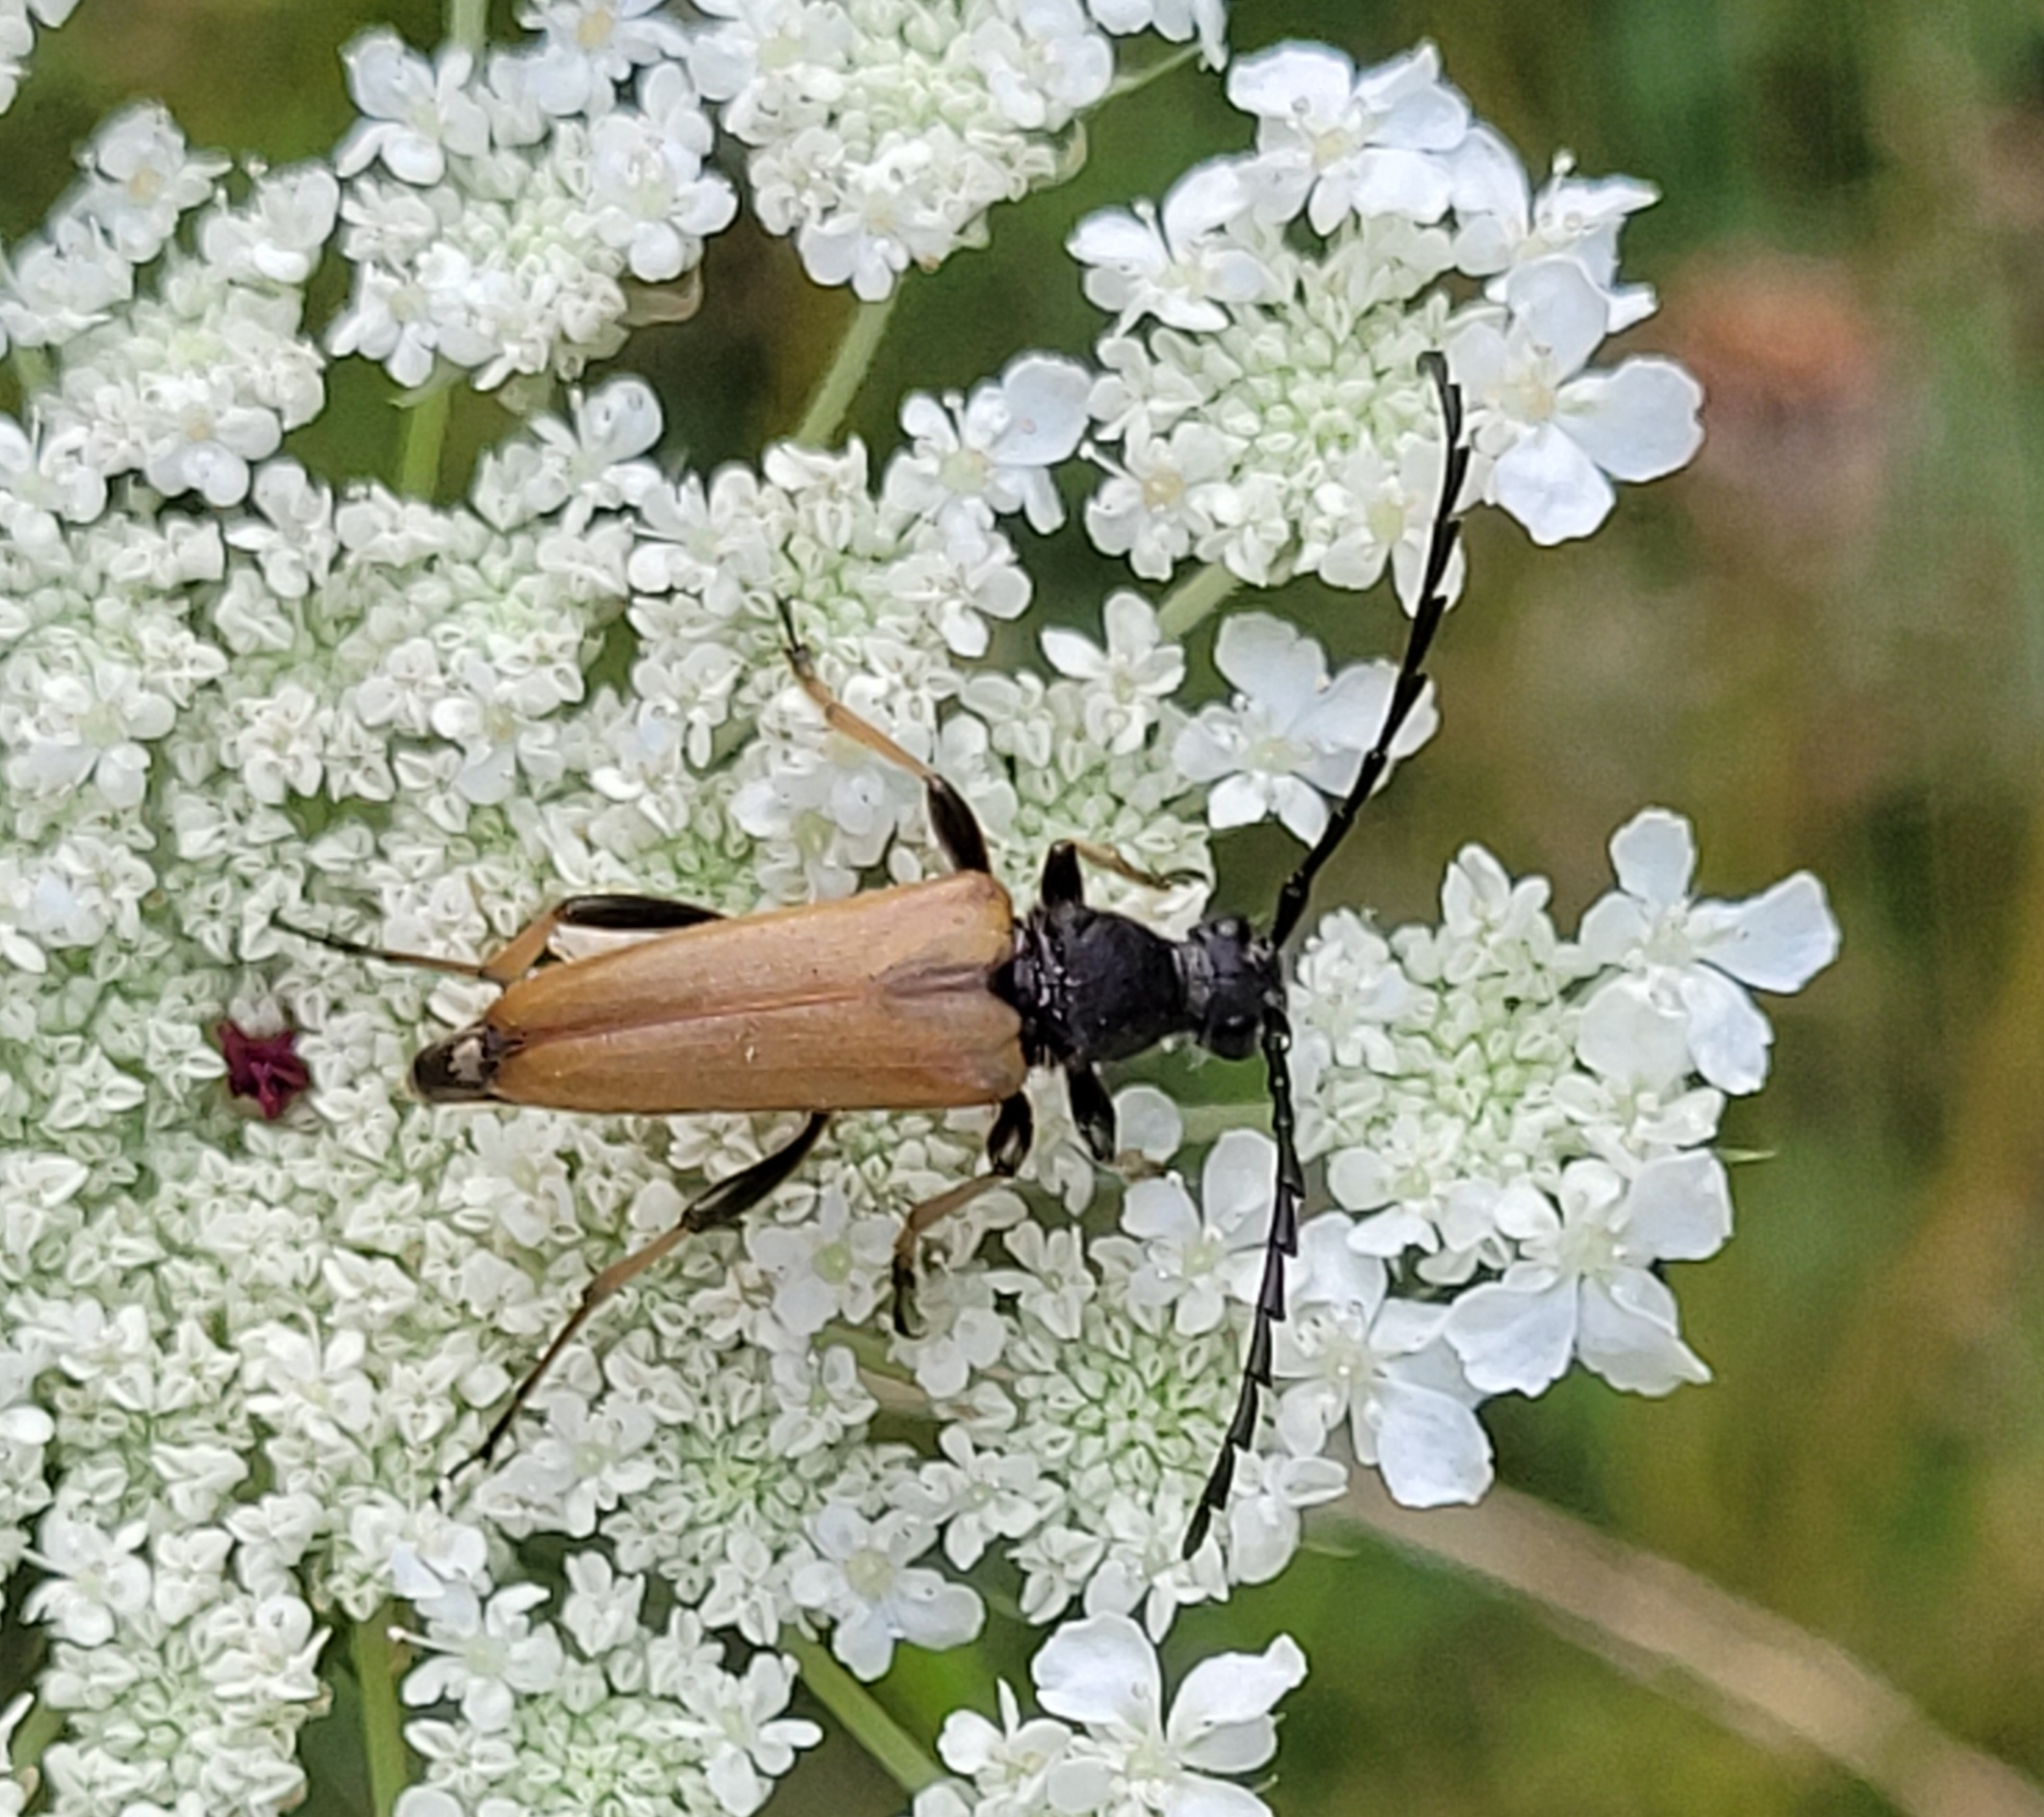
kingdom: Animalia
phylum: Arthropoda
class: Insecta
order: Coleoptera
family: Cerambycidae
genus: Stictoleptura
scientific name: Stictoleptura rubra
